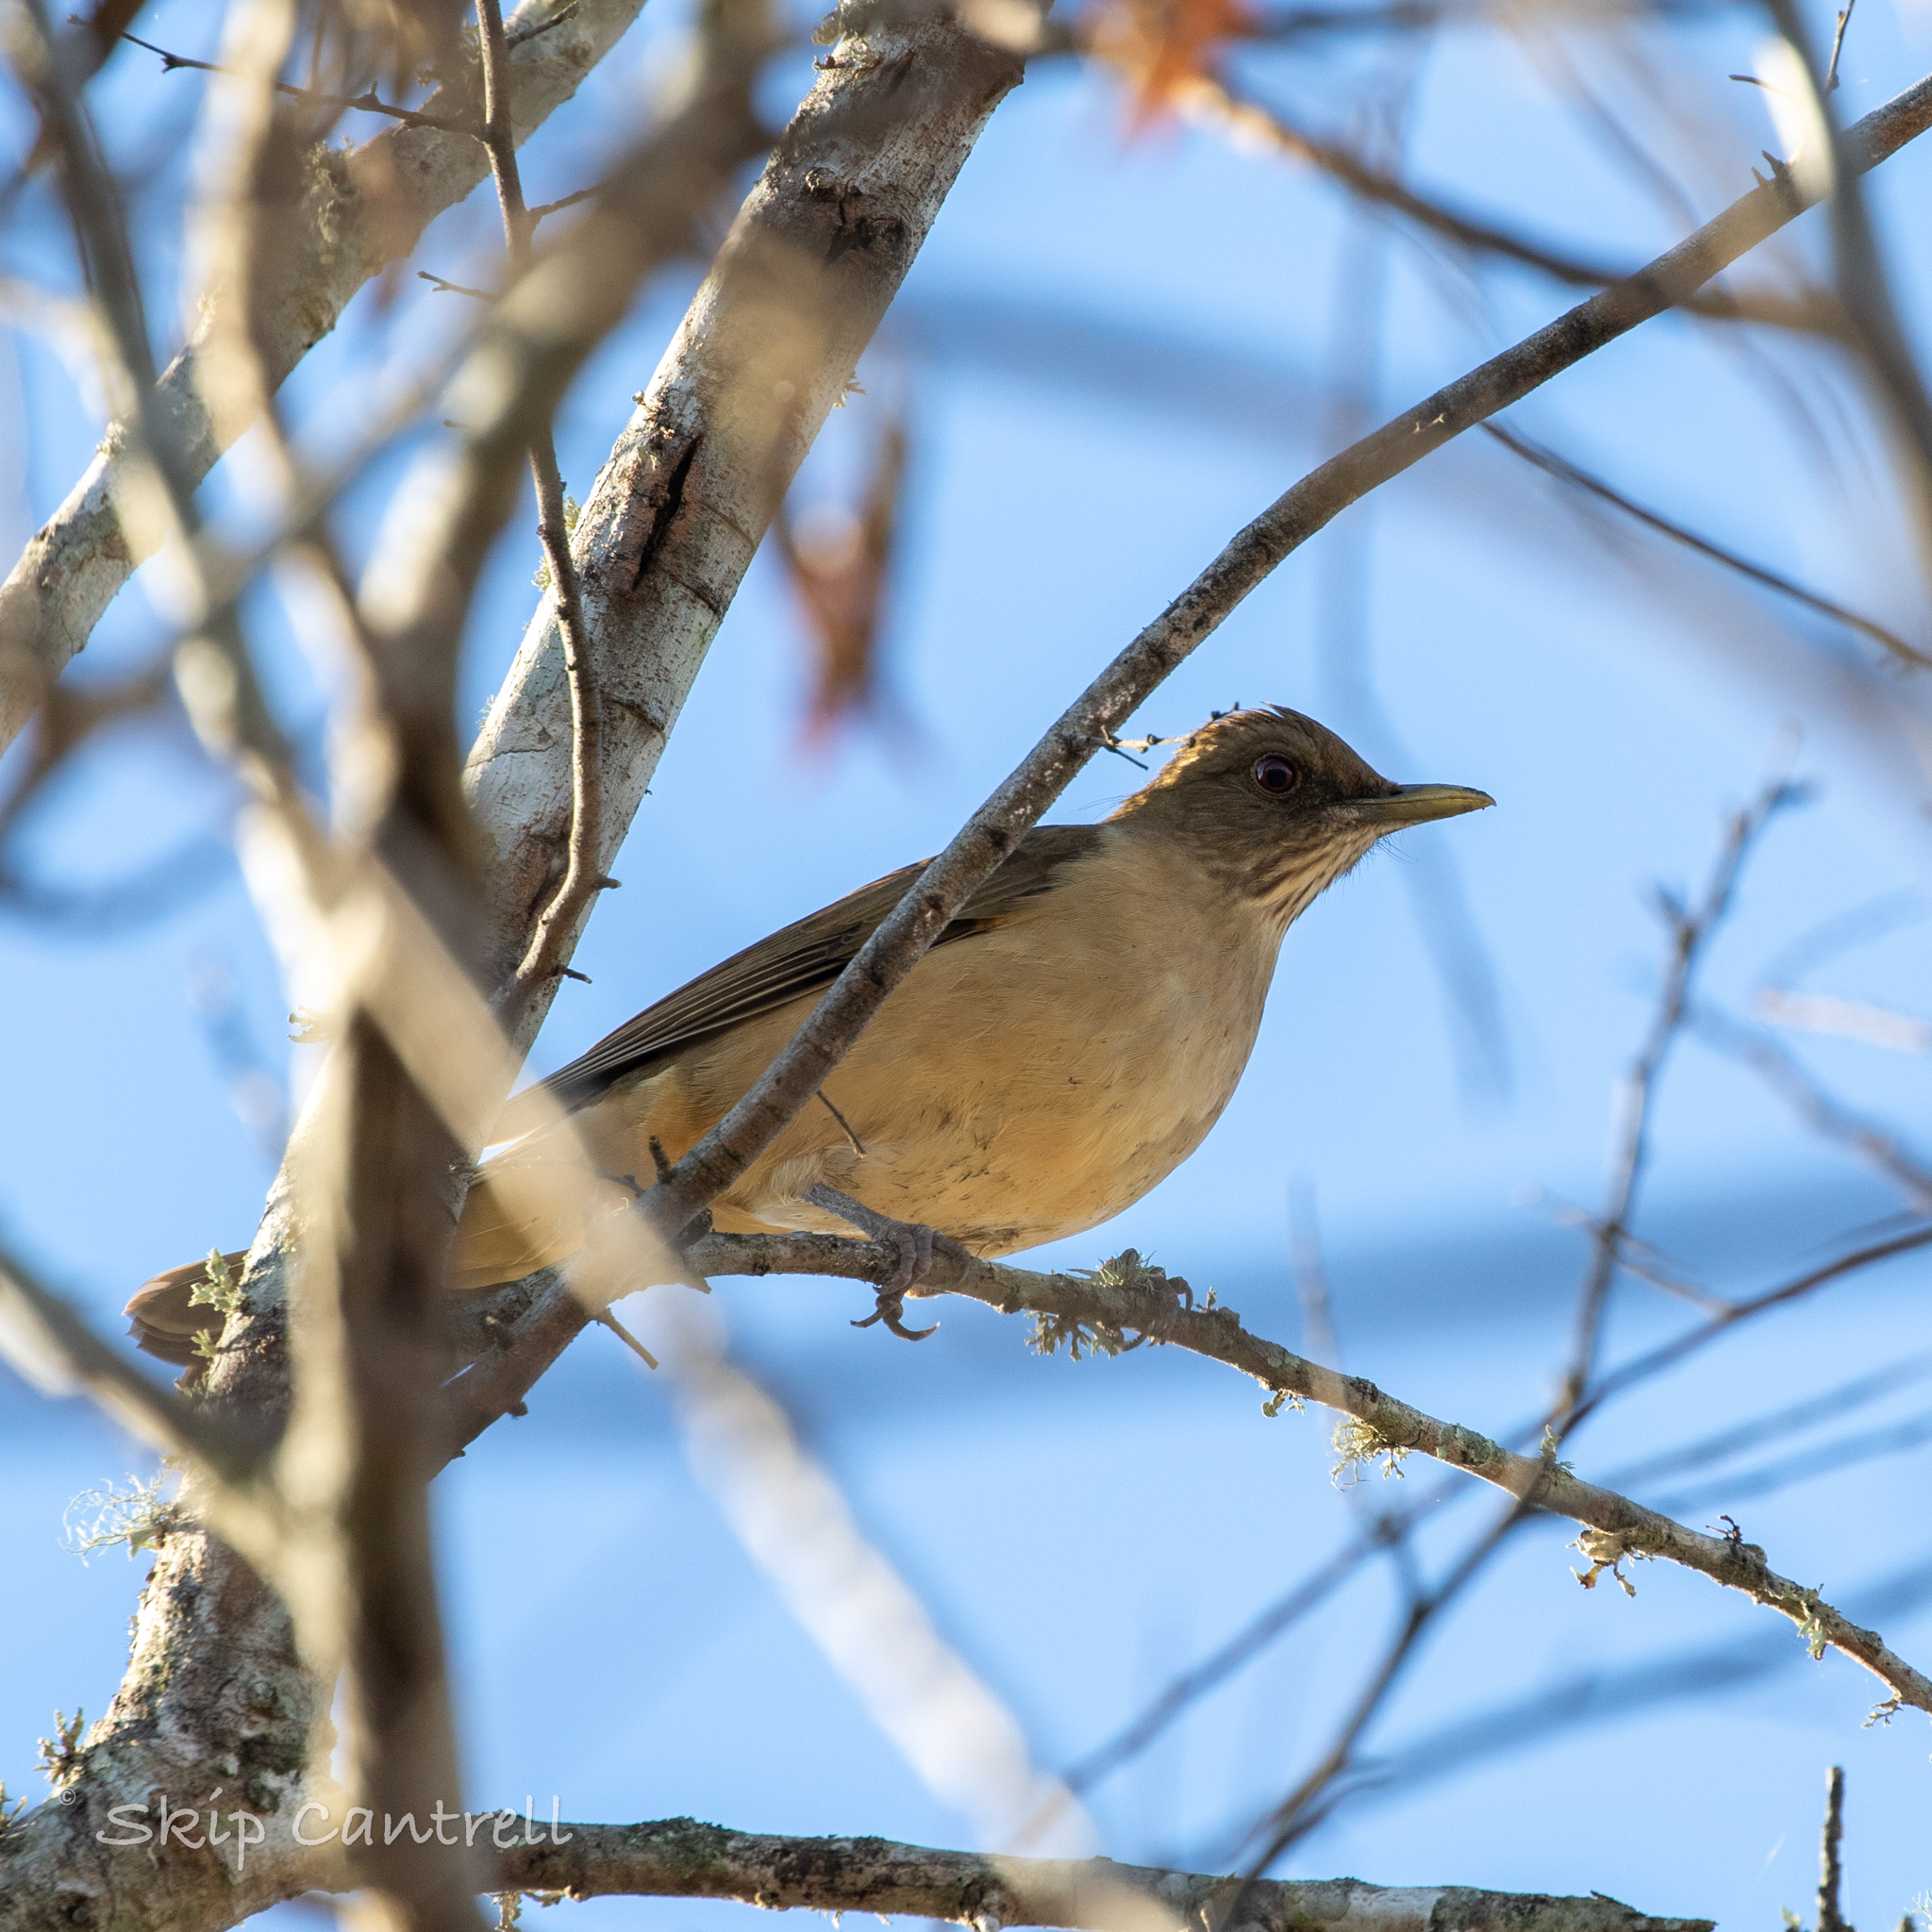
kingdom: Animalia
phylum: Chordata
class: Aves
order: Passeriformes
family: Turdidae
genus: Turdus
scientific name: Turdus grayi
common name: Clay-colored thrush
